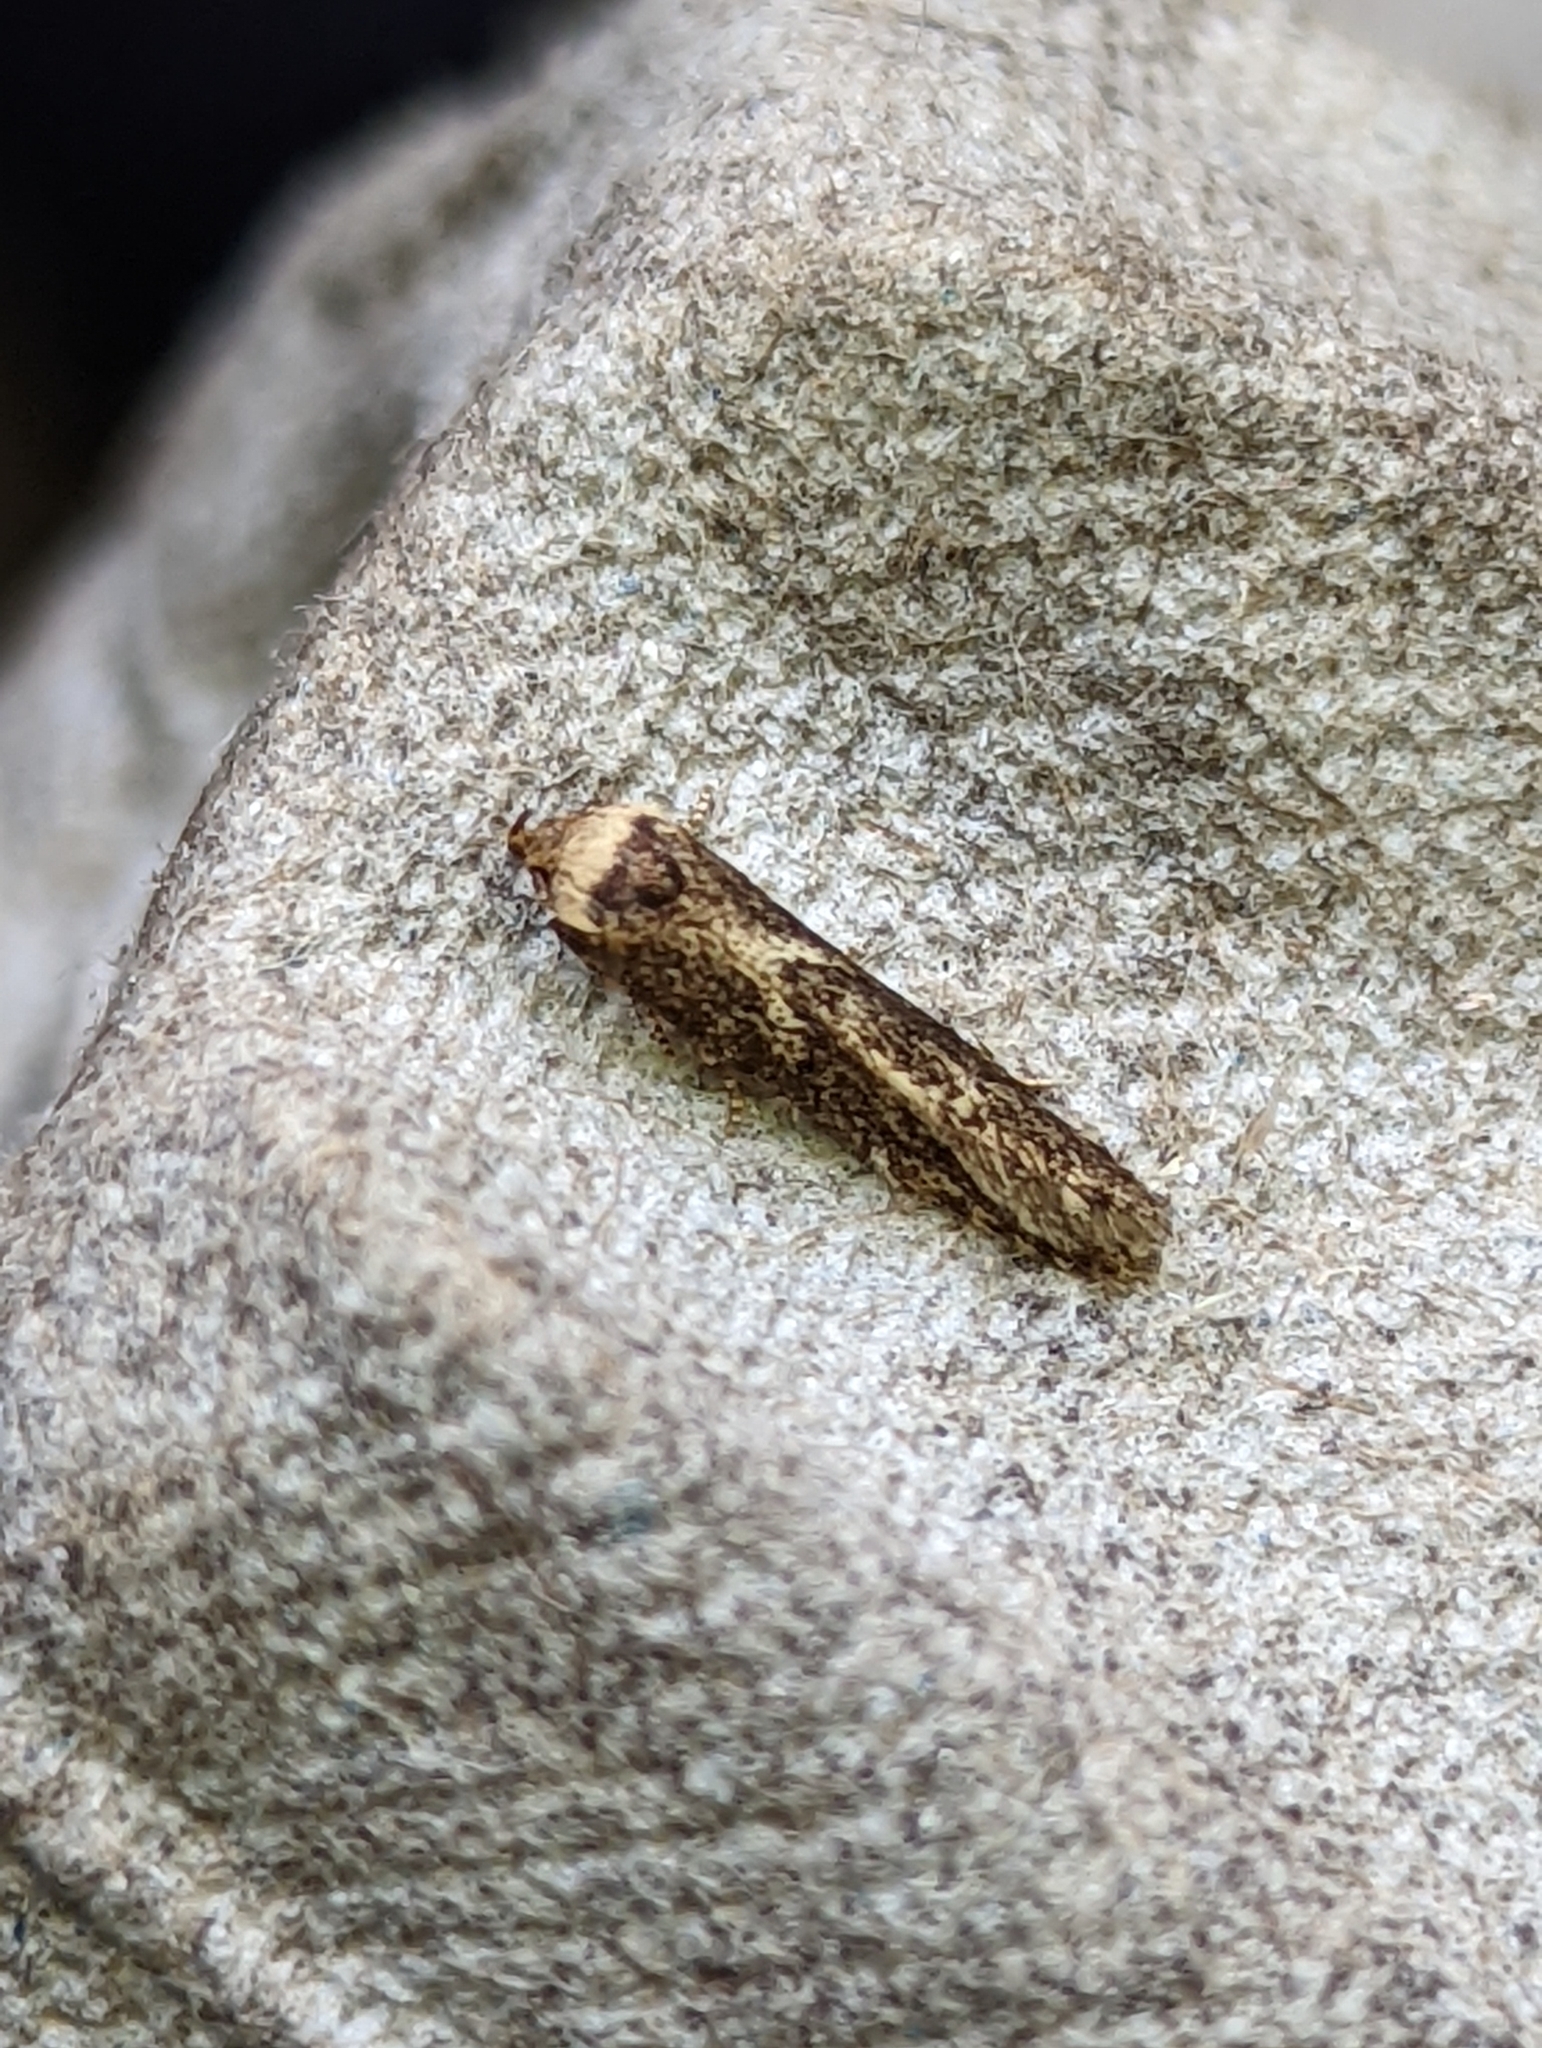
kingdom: Animalia
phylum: Arthropoda
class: Insecta
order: Lepidoptera
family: Blastobasidae
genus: Blastobasis
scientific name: Blastobasis adustella
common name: Dingy dowd
